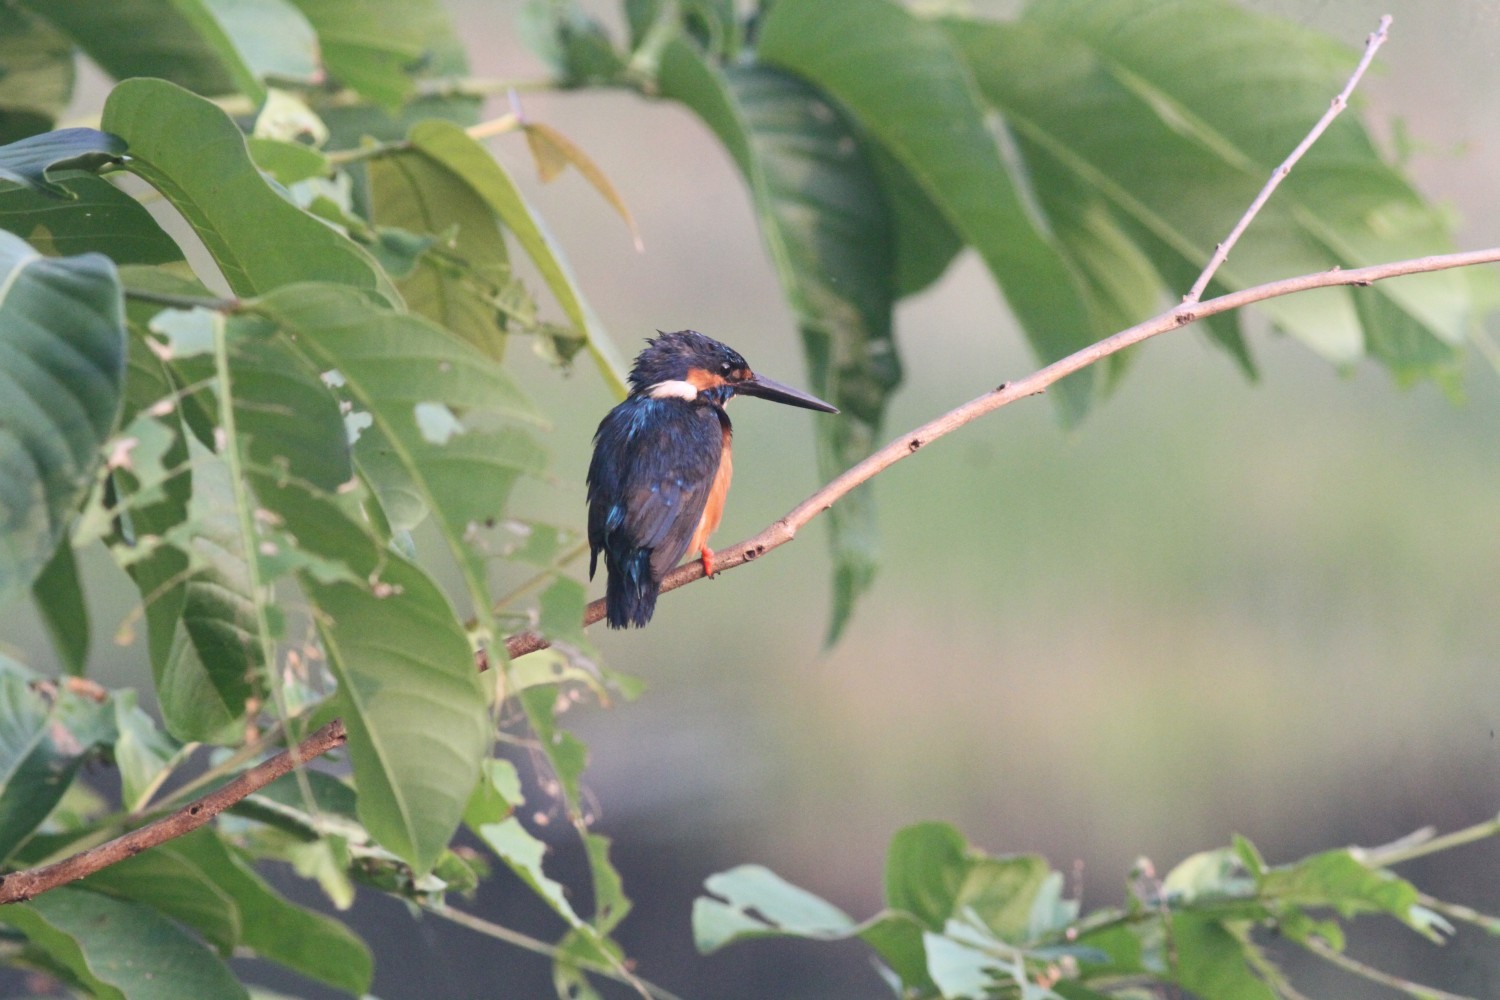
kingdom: Animalia
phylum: Chordata
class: Aves
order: Coraciiformes
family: Alcedinidae
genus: Alcedo
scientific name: Alcedo atthis
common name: Common kingfisher
